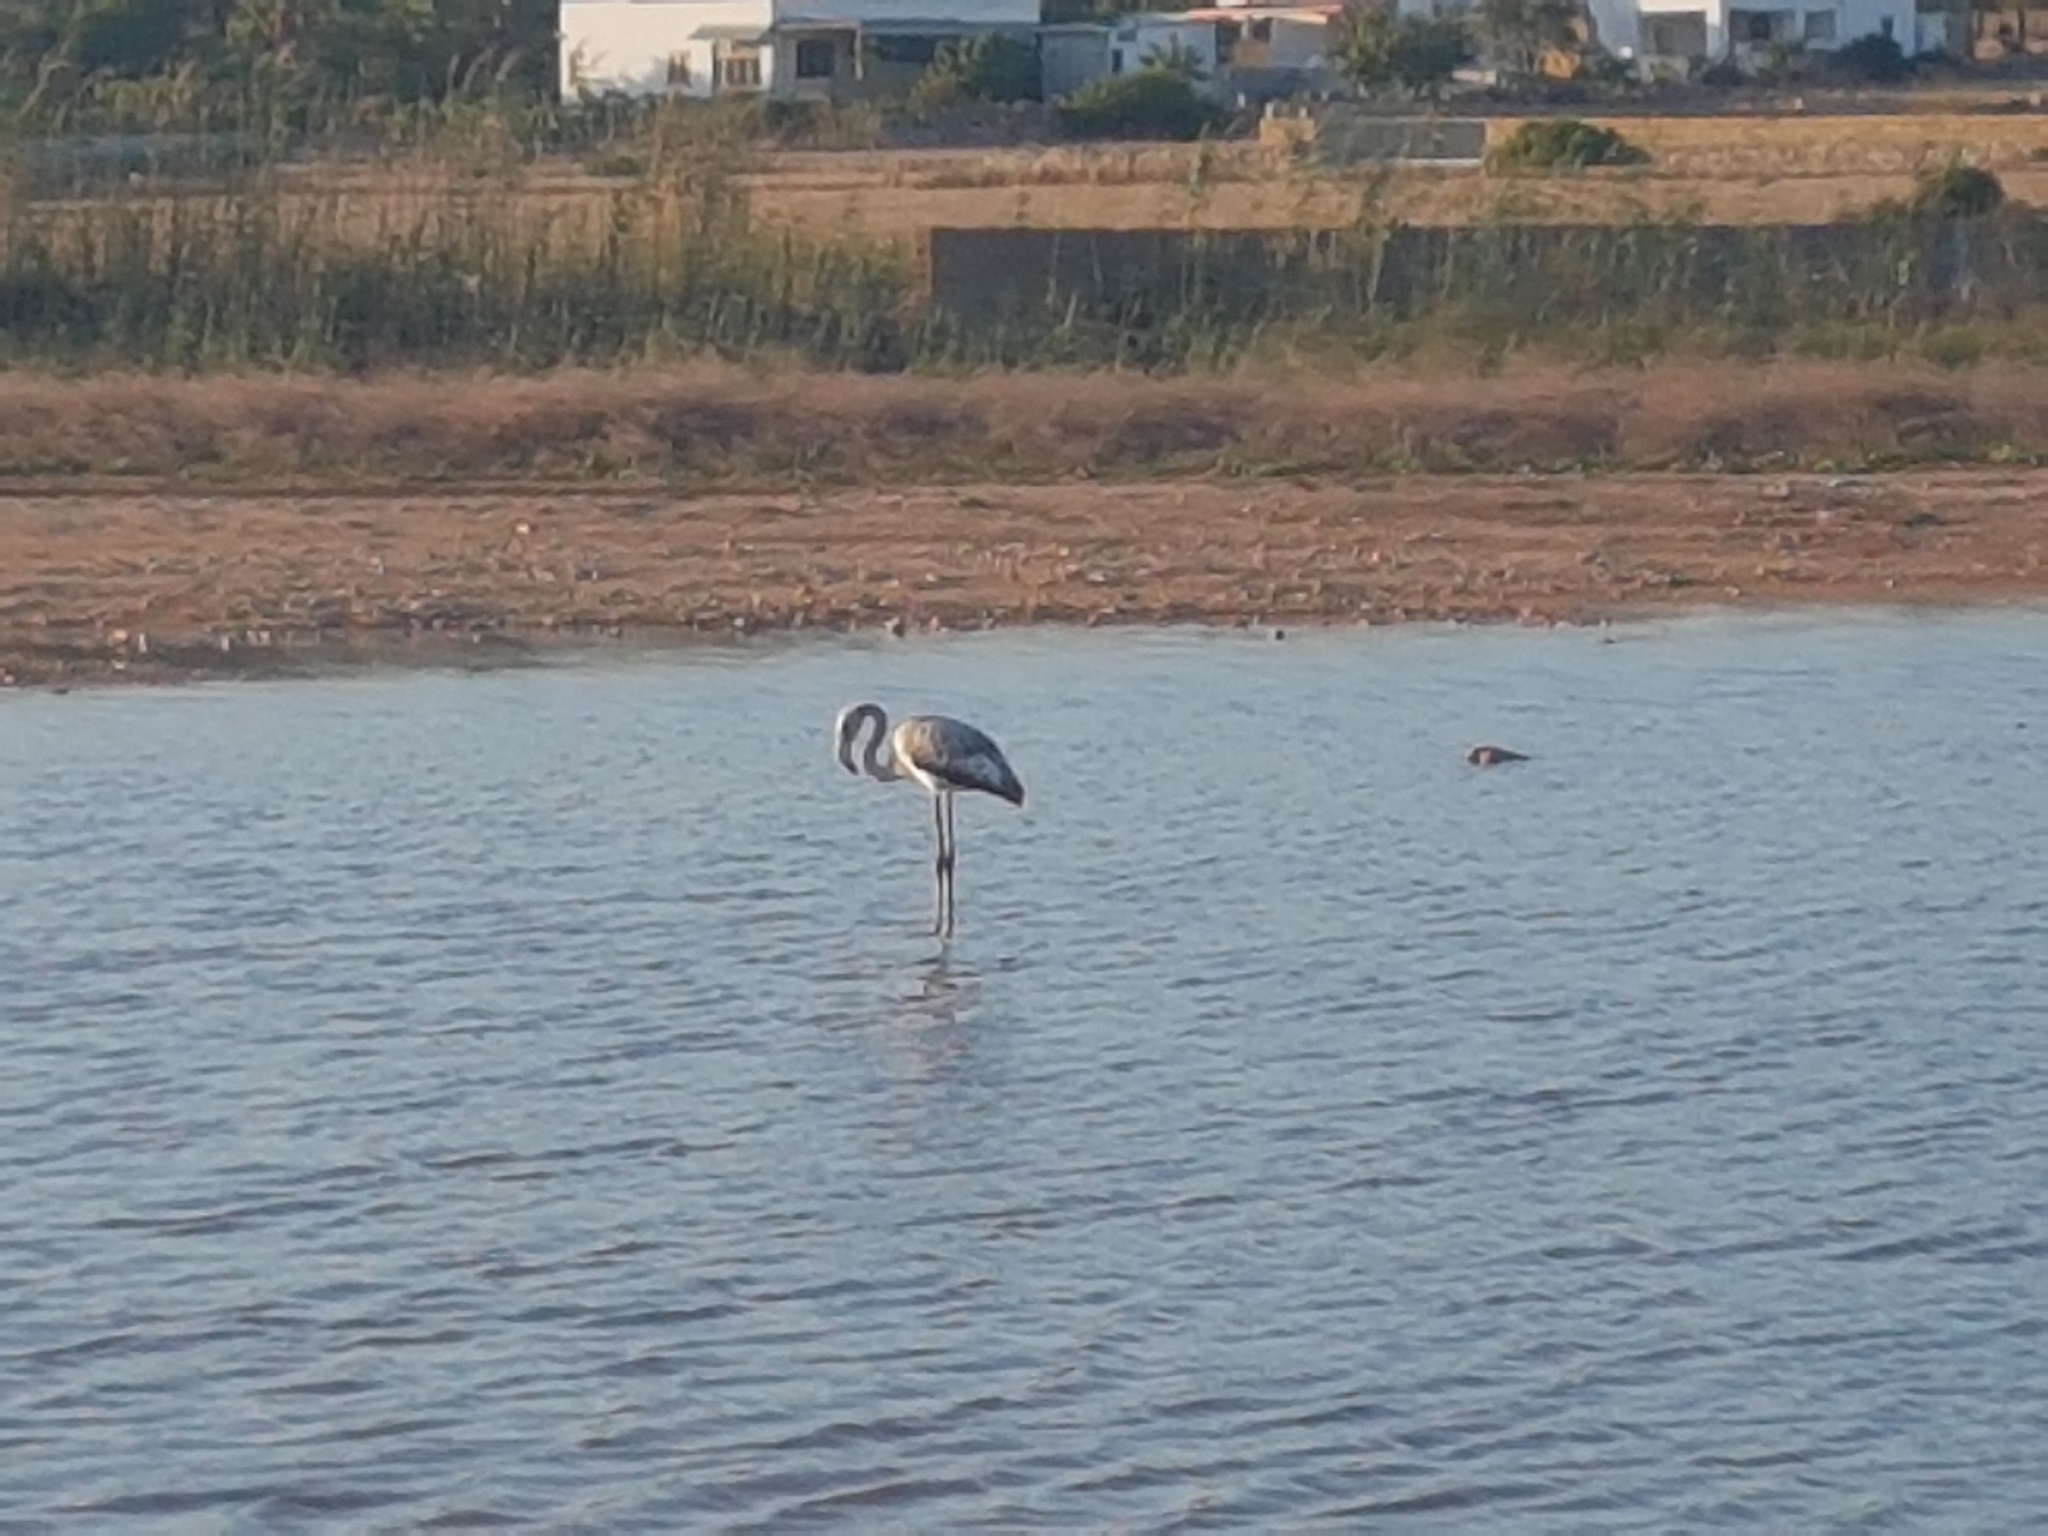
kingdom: Animalia
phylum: Chordata
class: Aves
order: Phoenicopteriformes
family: Phoenicopteridae
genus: Phoenicopterus
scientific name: Phoenicopterus roseus
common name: Greater flamingo
